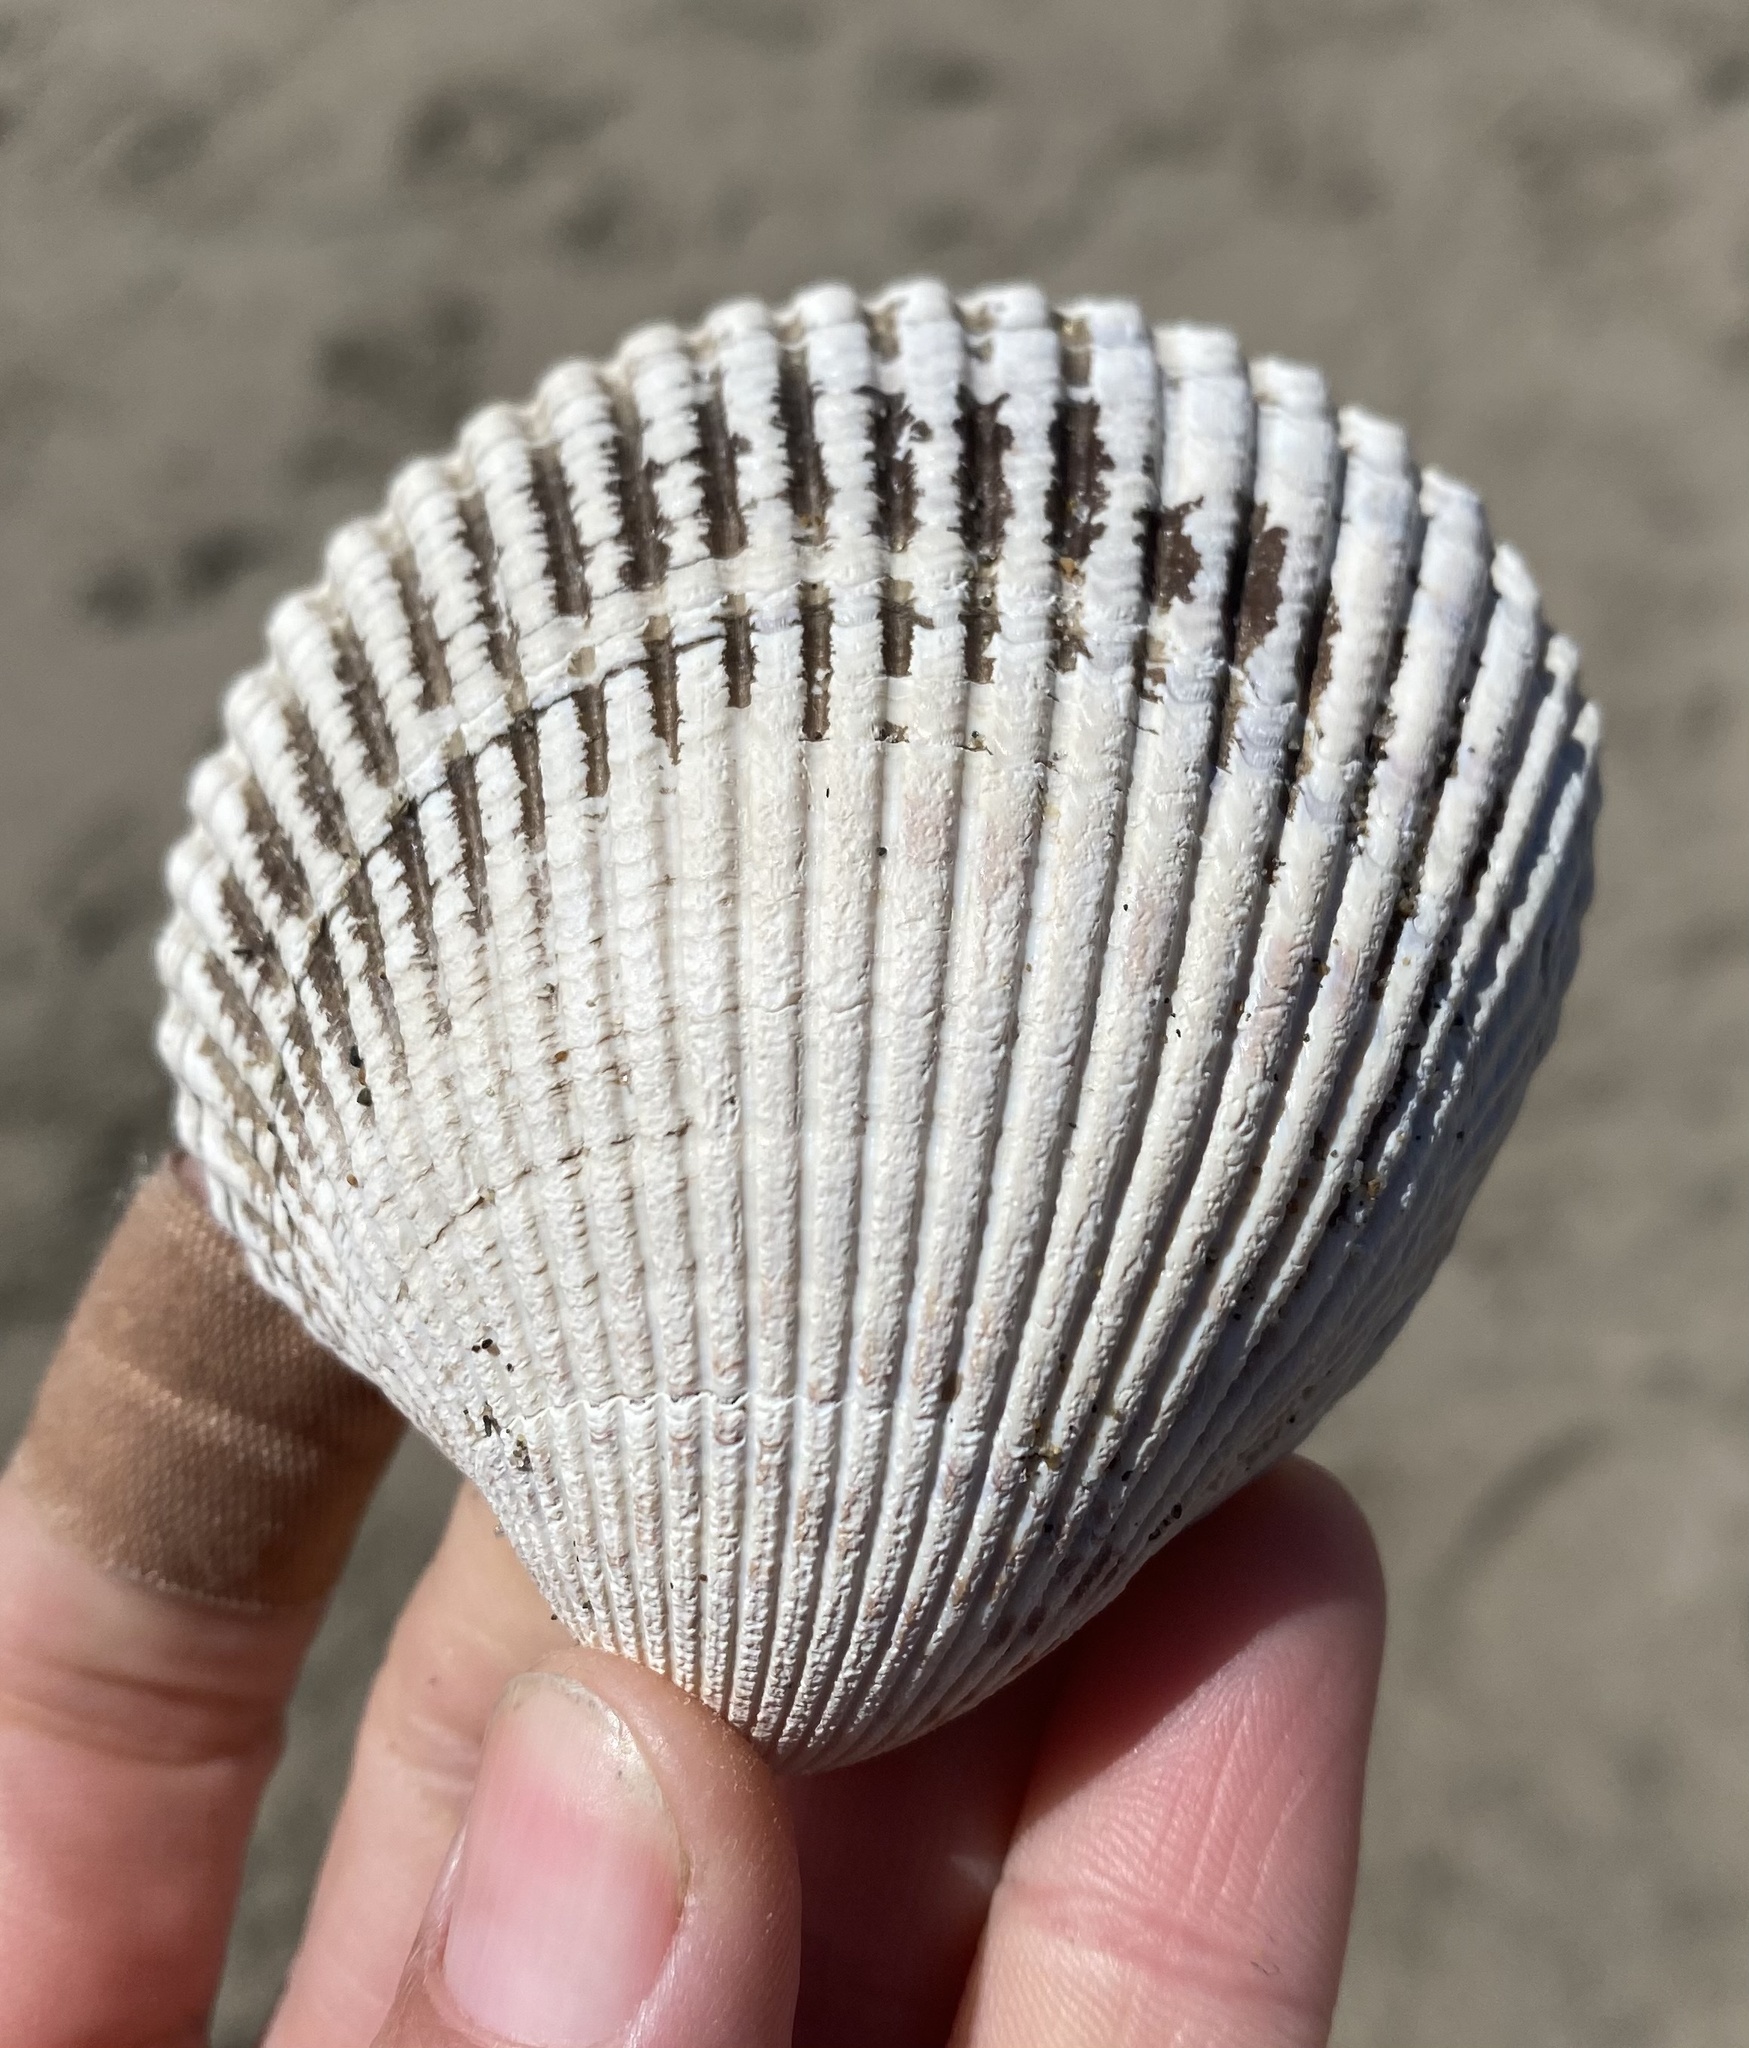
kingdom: Animalia
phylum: Mollusca
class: Bivalvia
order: Cardiida
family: Cardiidae
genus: Clinocardium
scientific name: Clinocardium nuttallii
